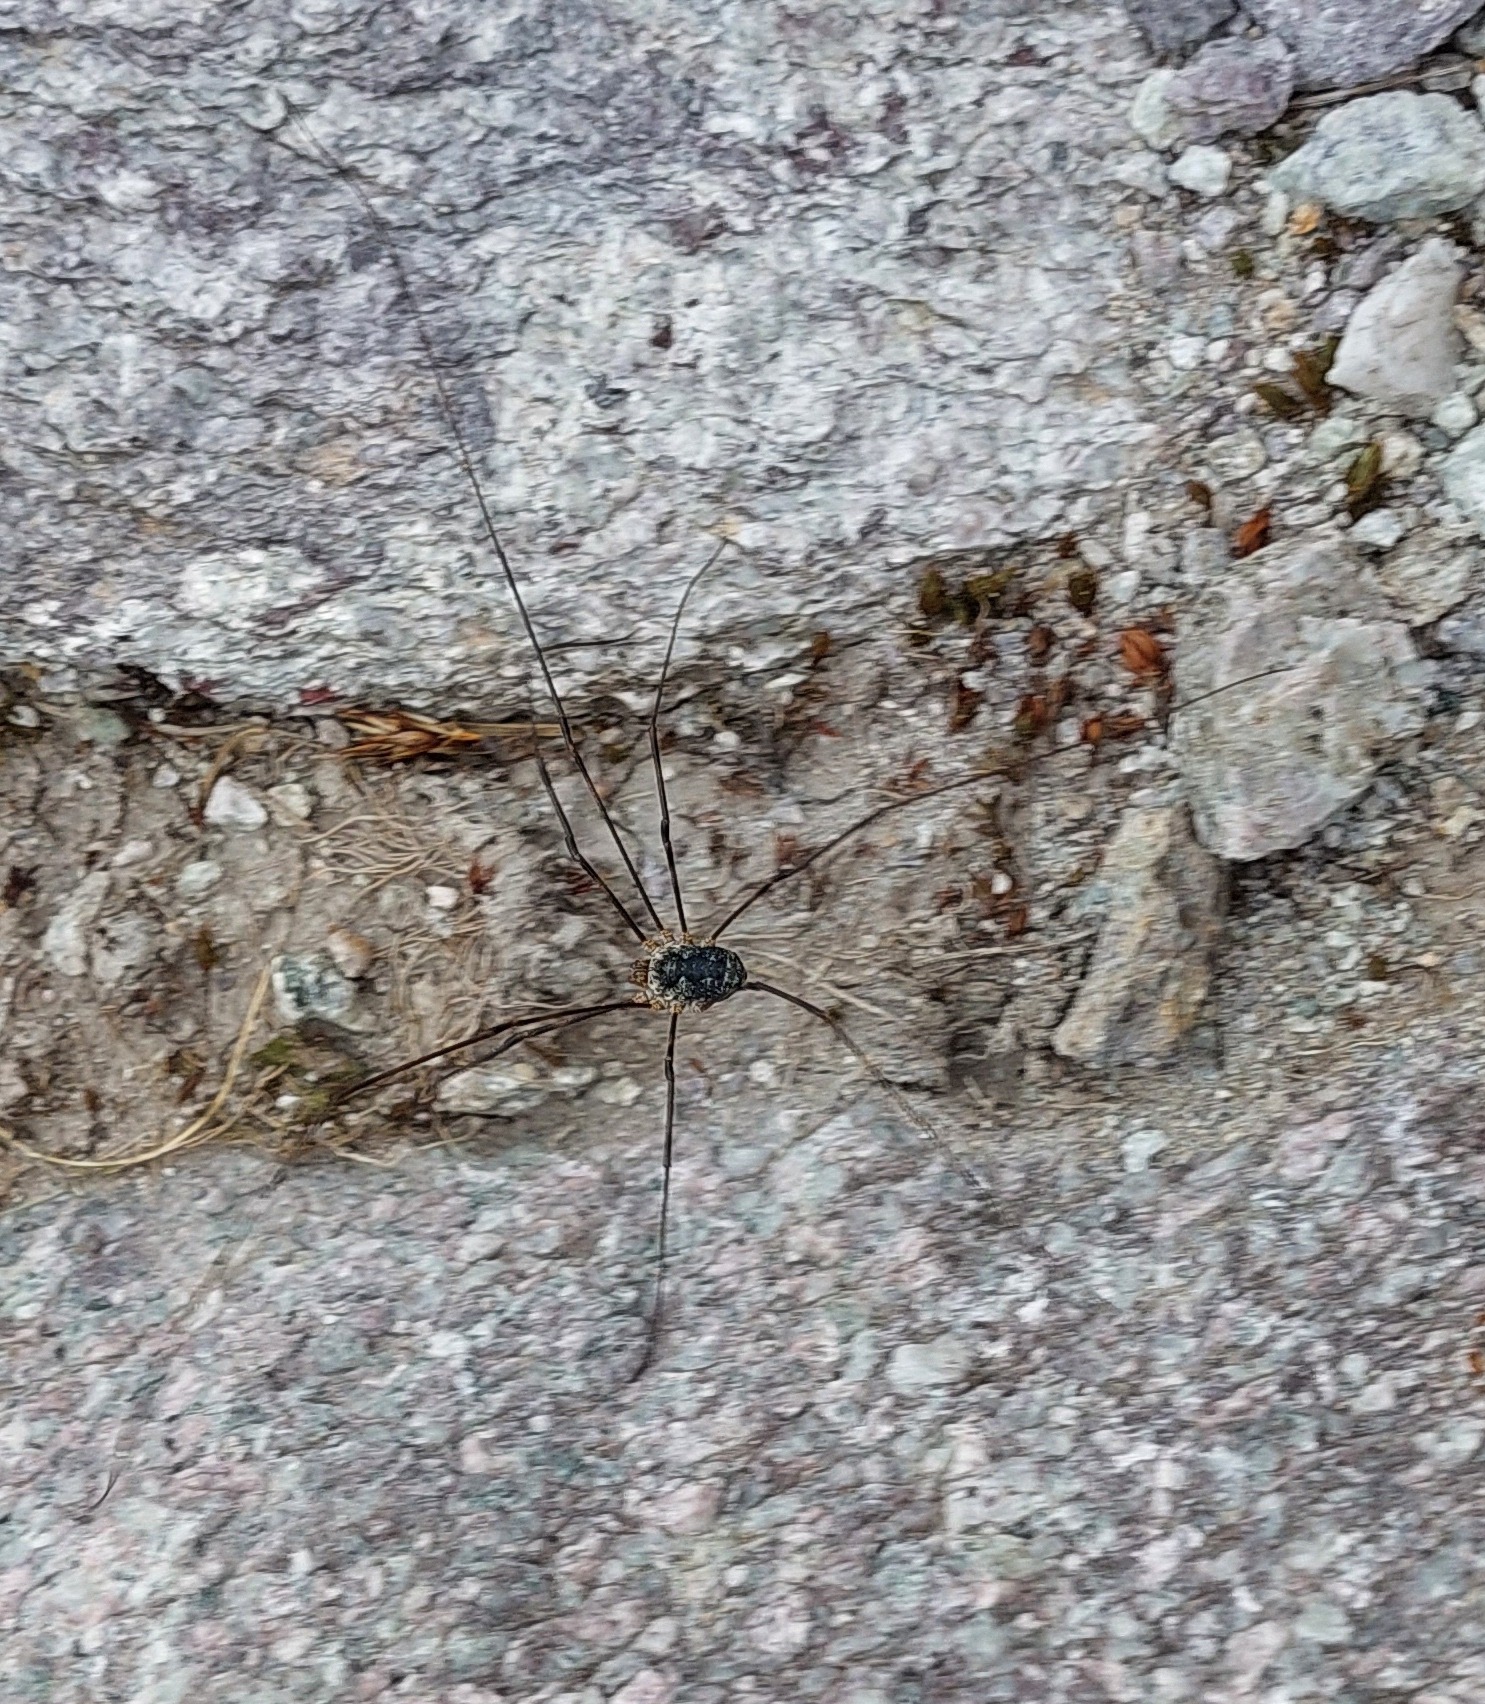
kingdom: Animalia
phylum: Arthropoda
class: Arachnida
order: Opiliones
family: Phalangiidae
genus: Mitopus
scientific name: Mitopus glacialis
